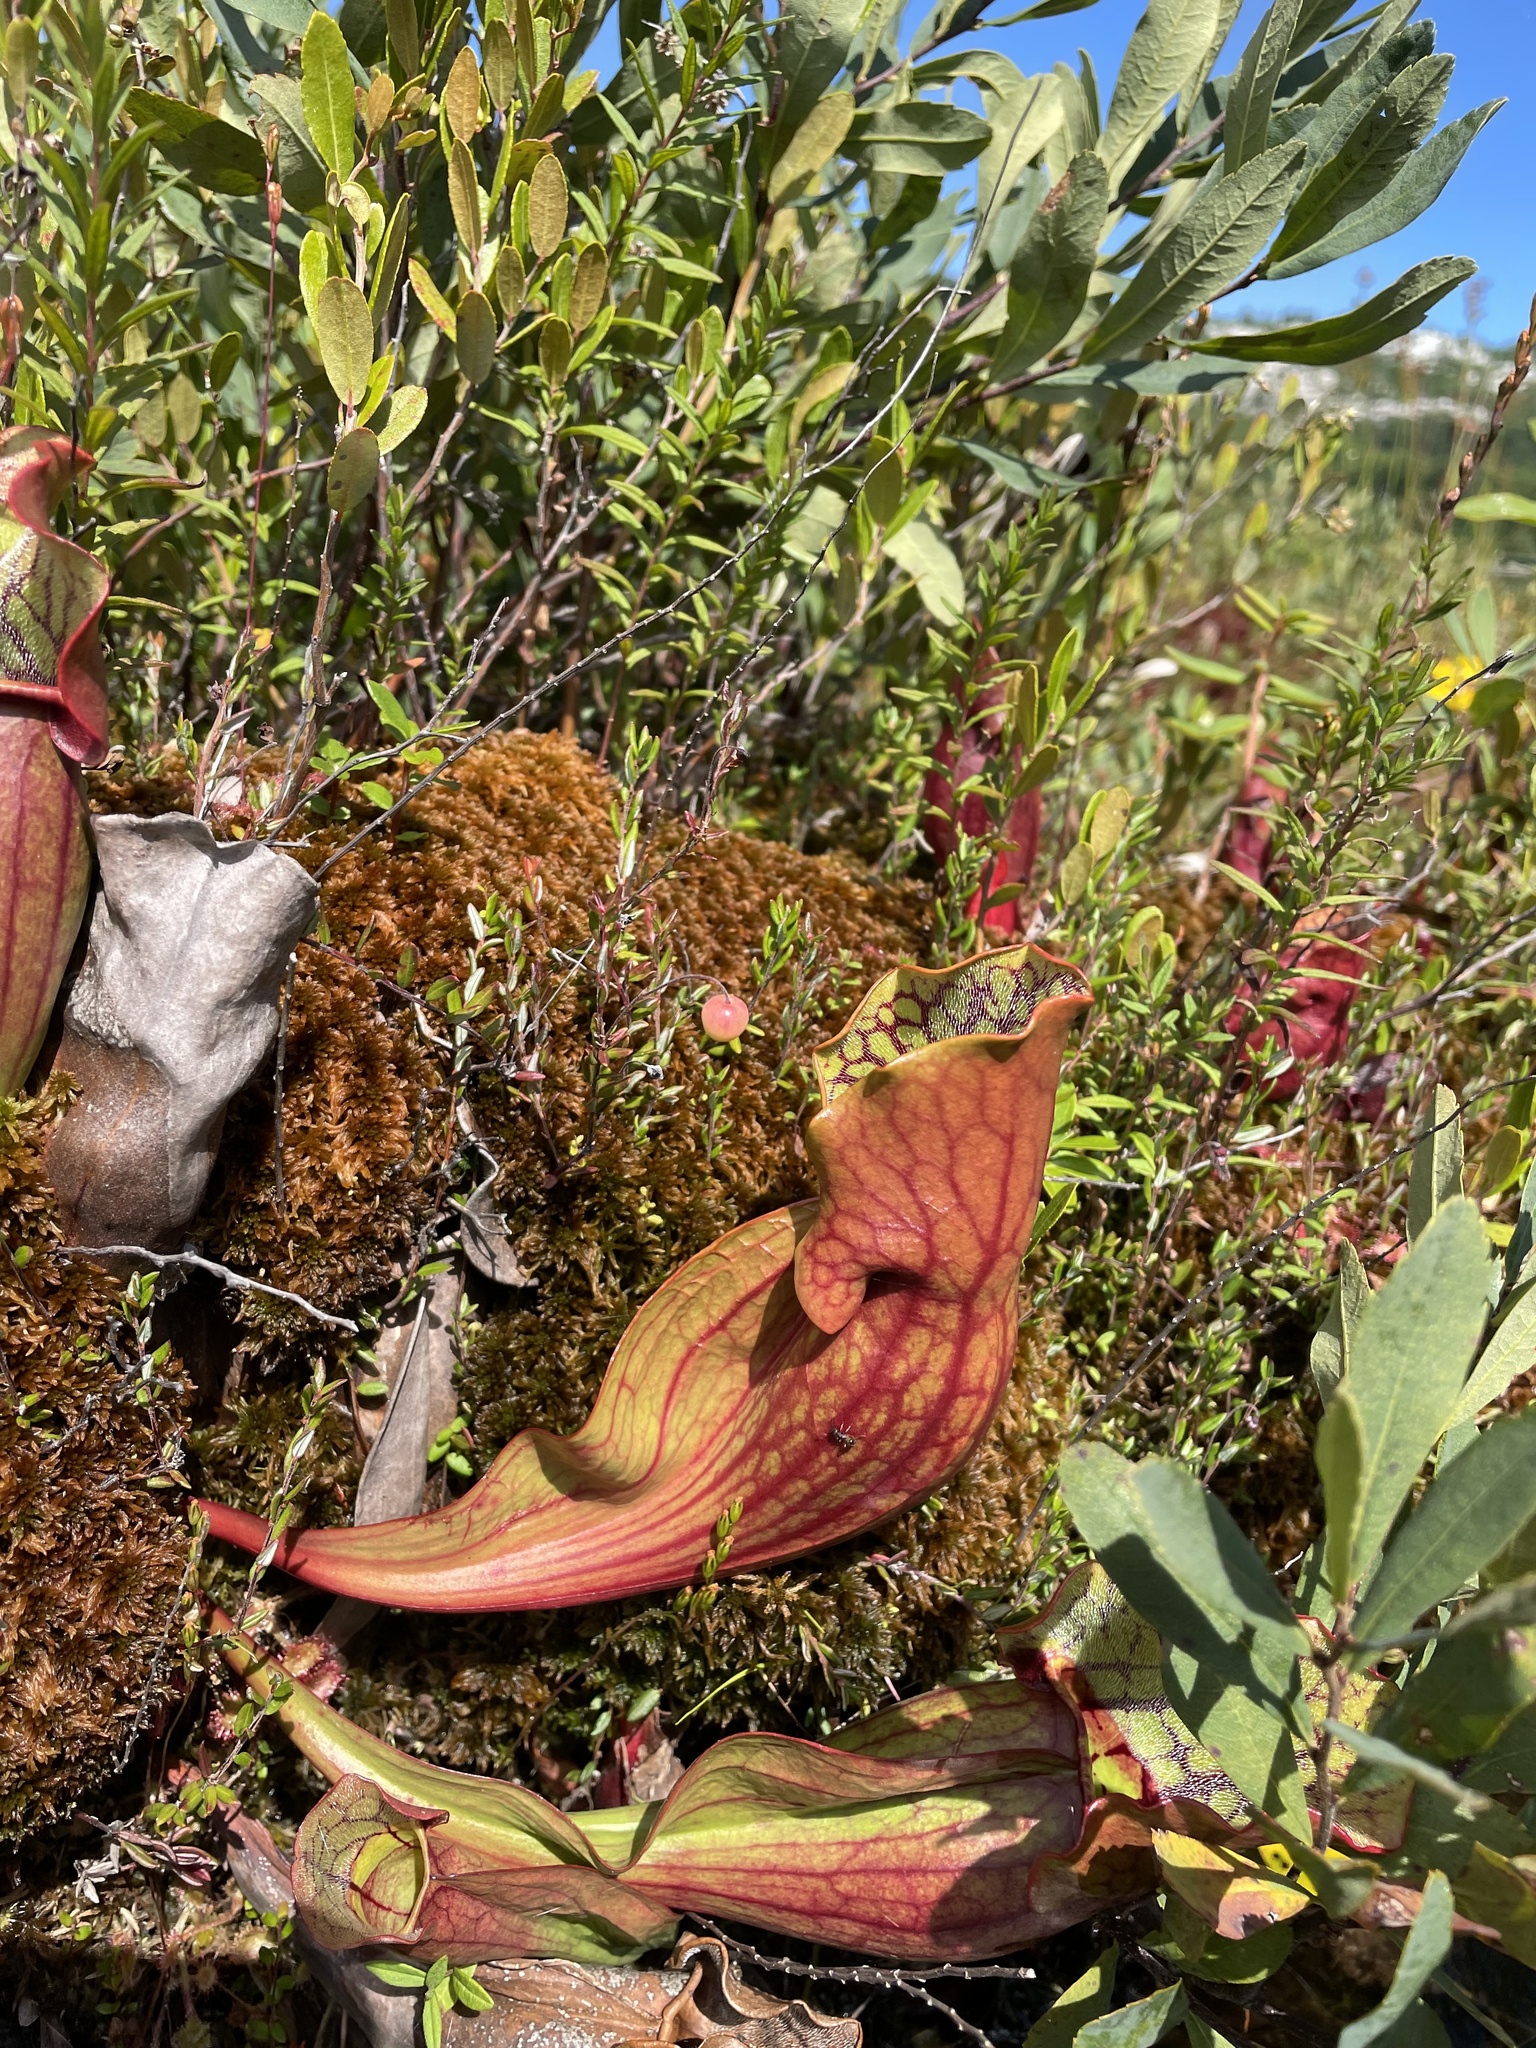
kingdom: Plantae
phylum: Tracheophyta
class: Magnoliopsida
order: Ericales
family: Sarraceniaceae
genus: Sarracenia
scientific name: Sarracenia purpurea
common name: Pitcherplant
